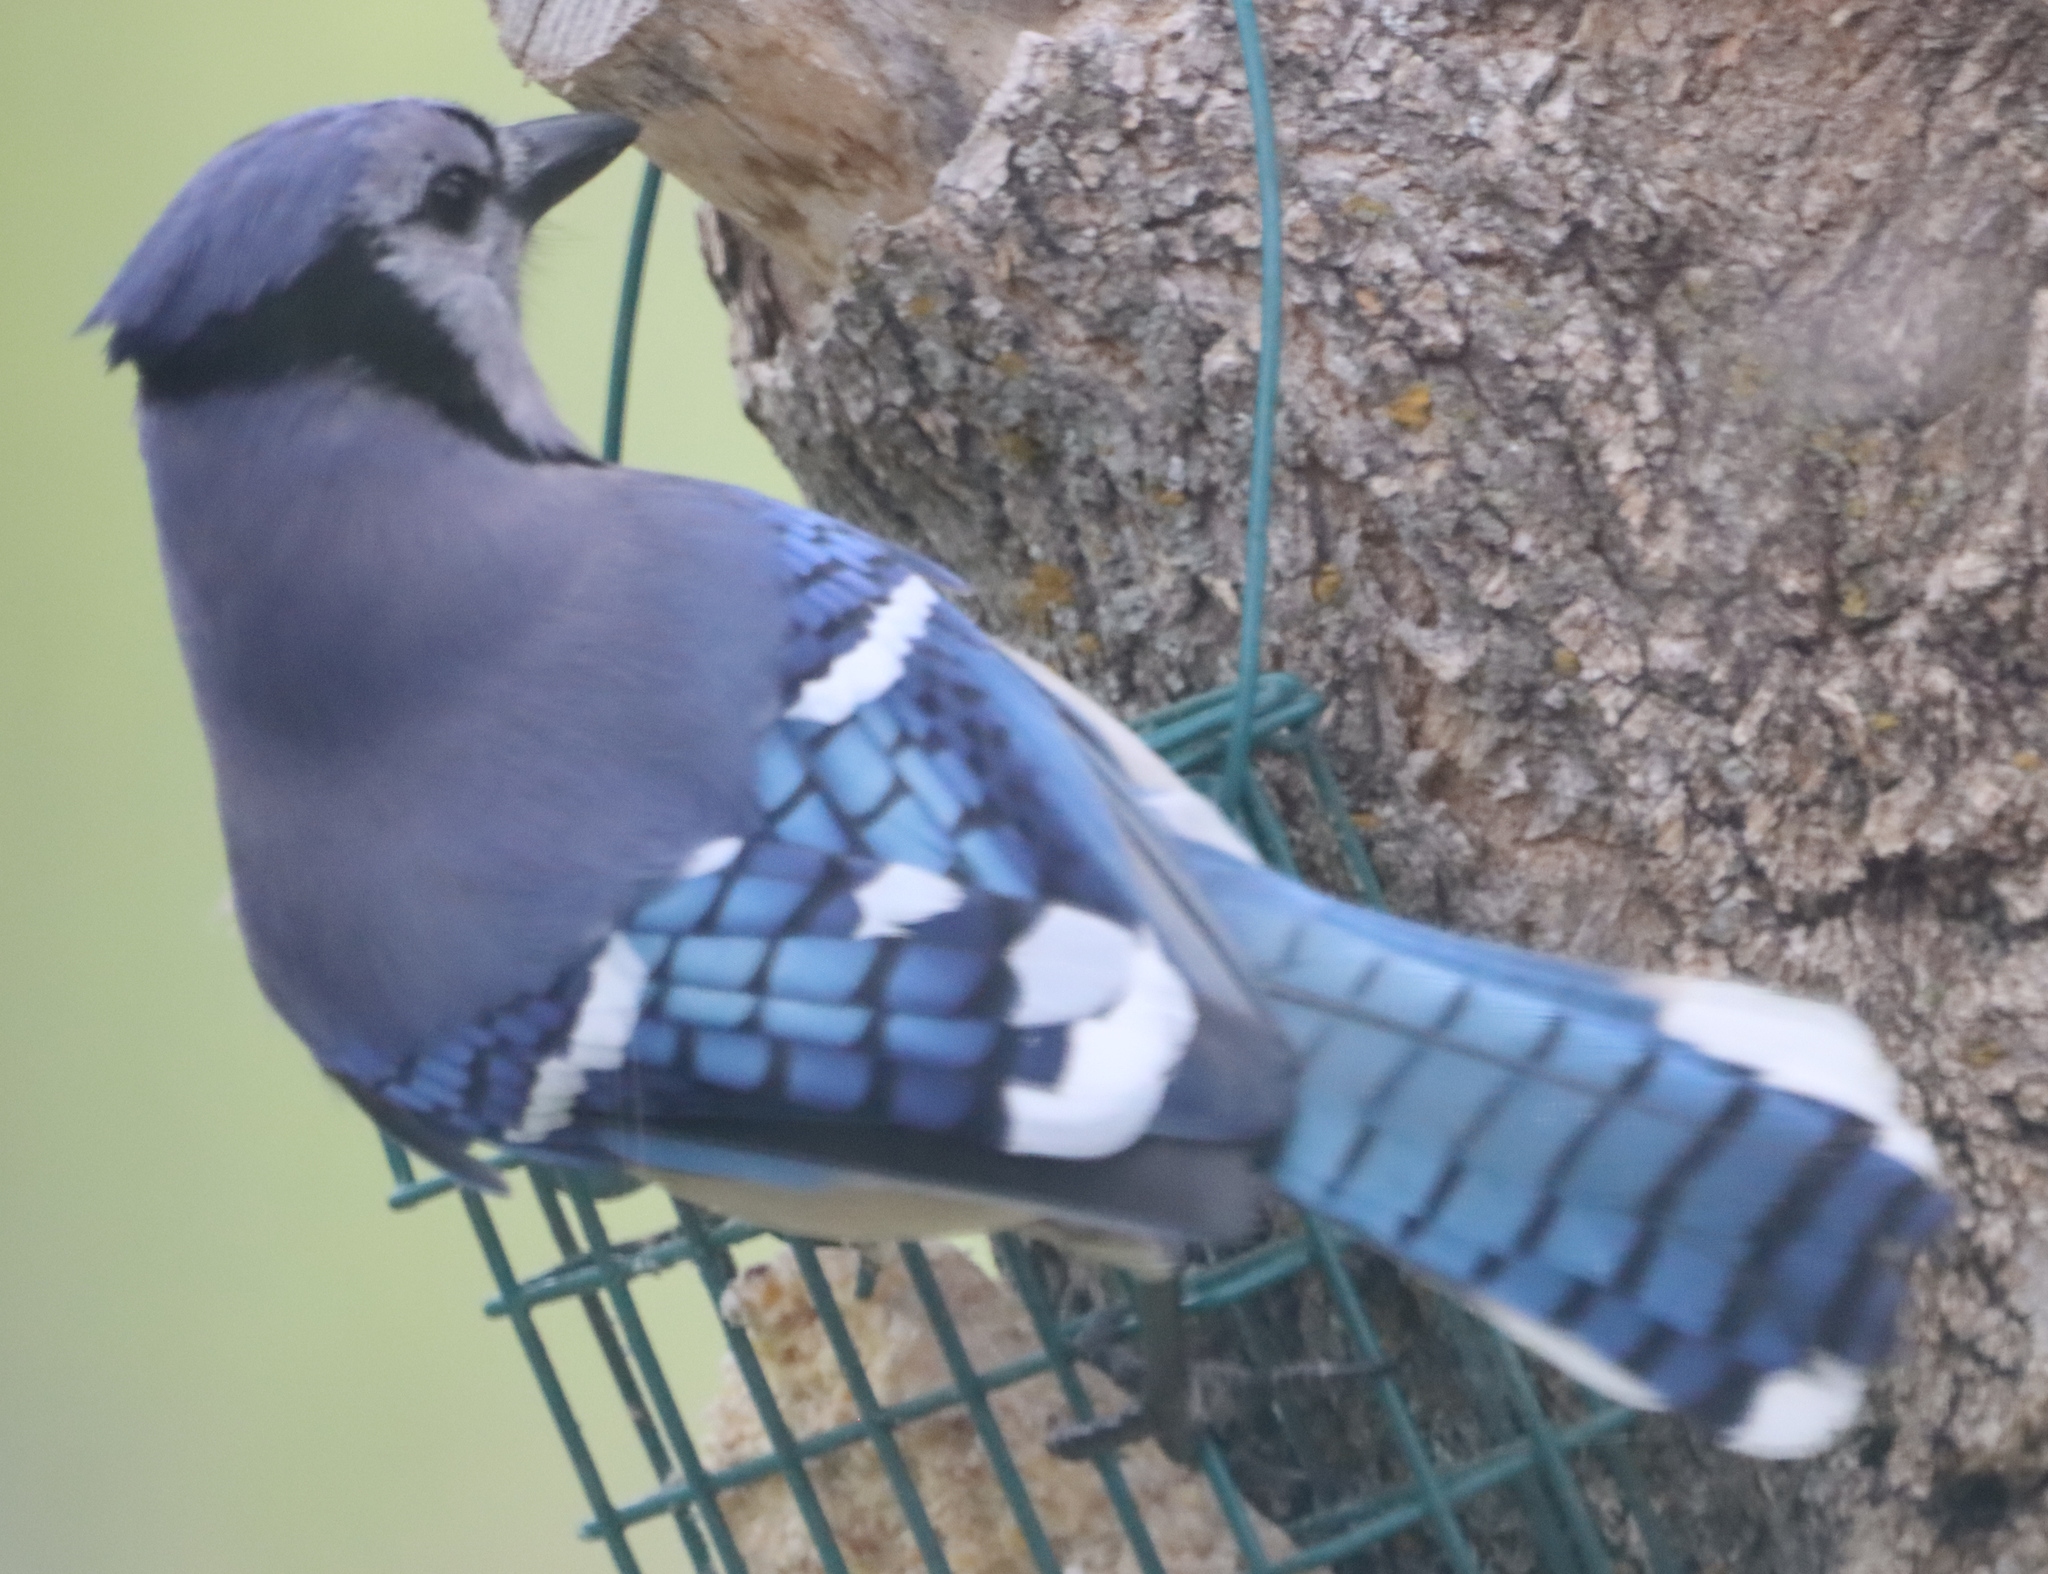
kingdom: Animalia
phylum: Chordata
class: Aves
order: Passeriformes
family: Corvidae
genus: Cyanocitta
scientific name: Cyanocitta cristata
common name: Blue jay
